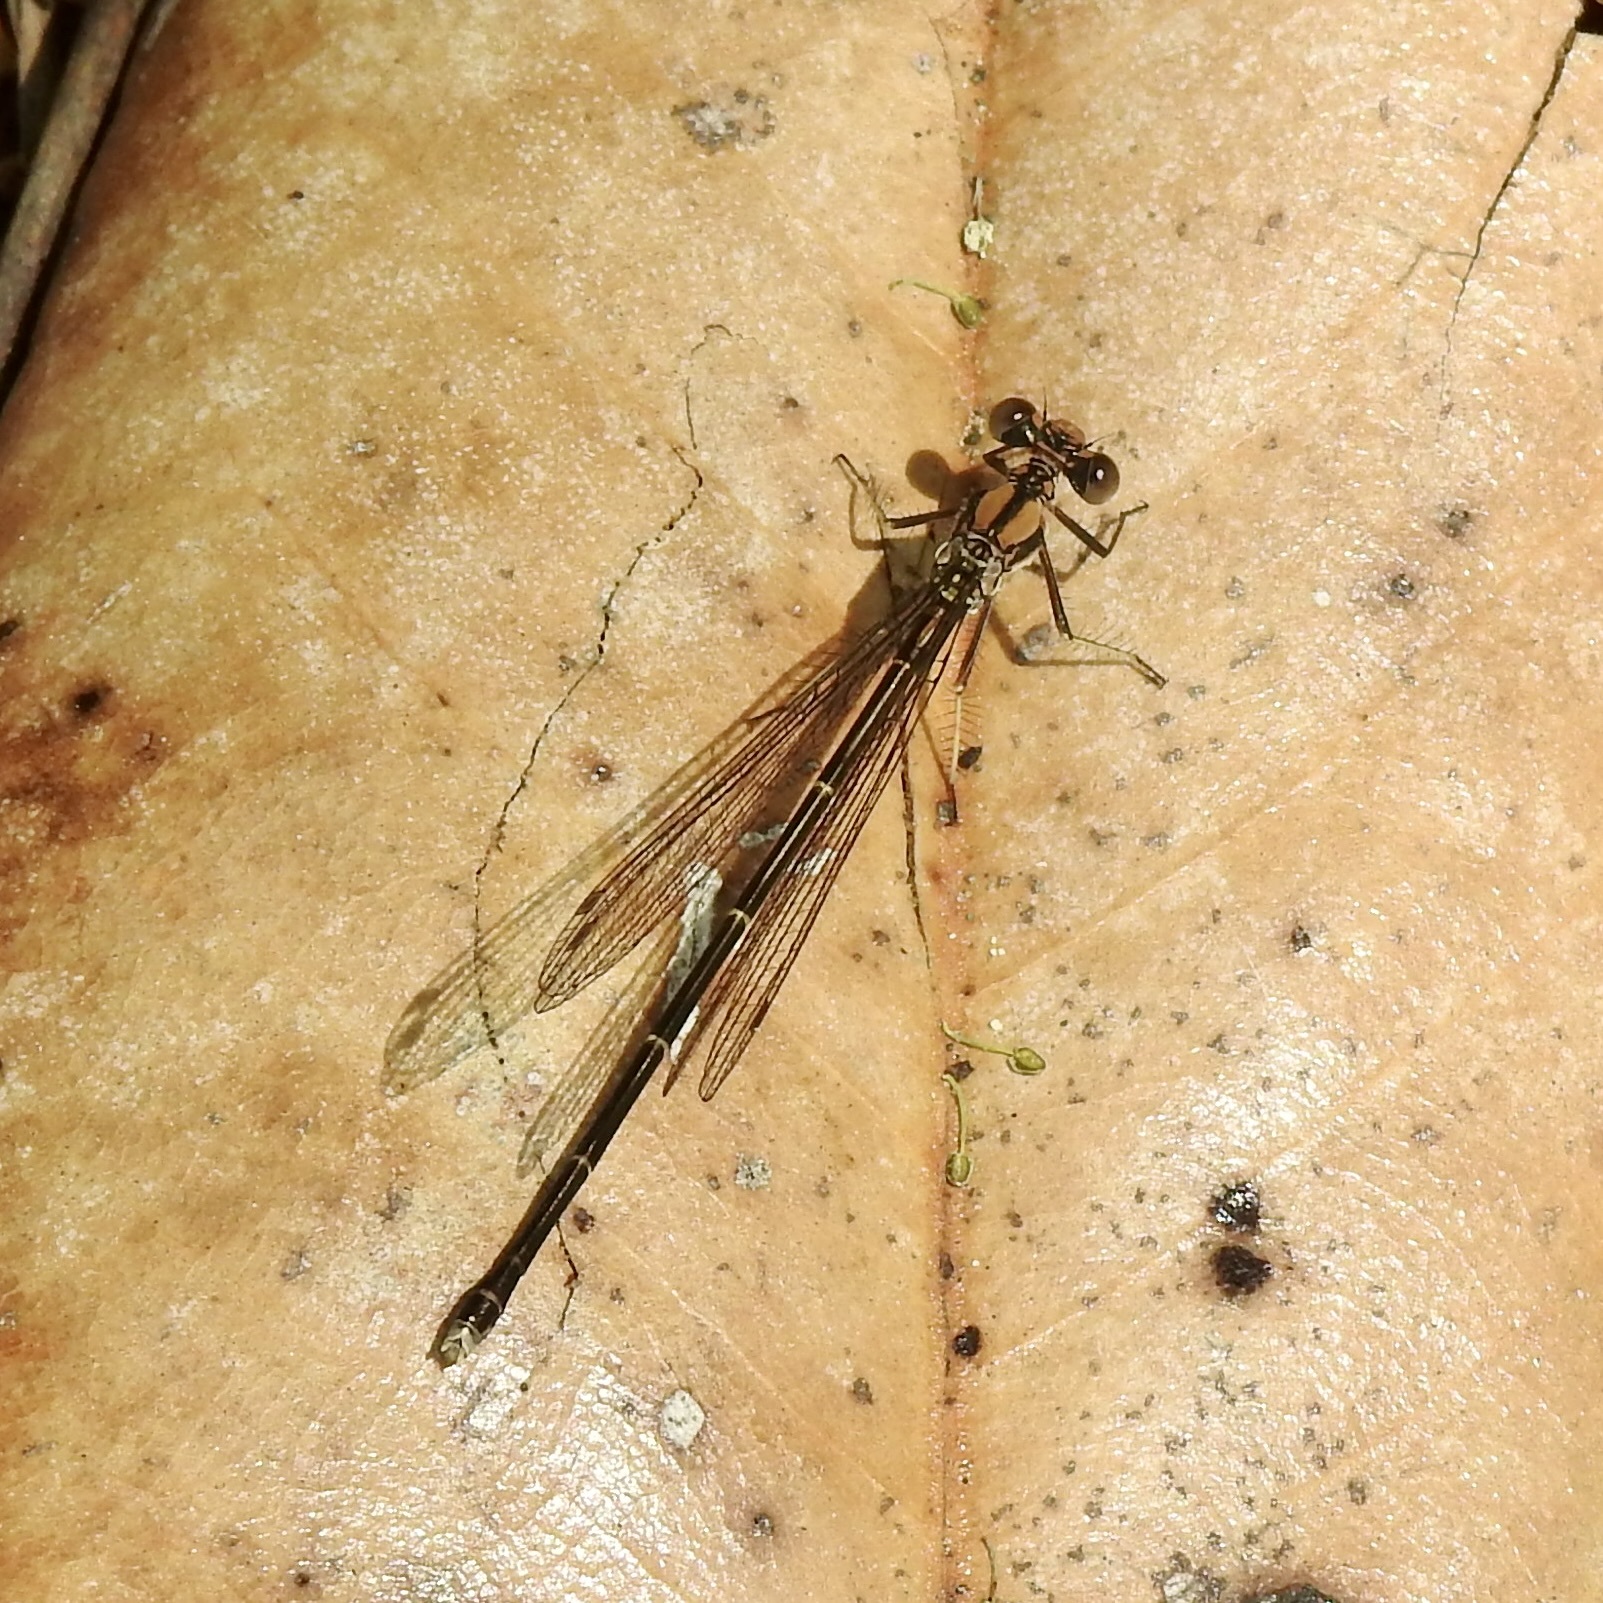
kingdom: Animalia
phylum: Arthropoda
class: Insecta
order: Odonata
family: Coenagrionidae
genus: Argia
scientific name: Argia tibialis
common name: Blue-tipped dancer
